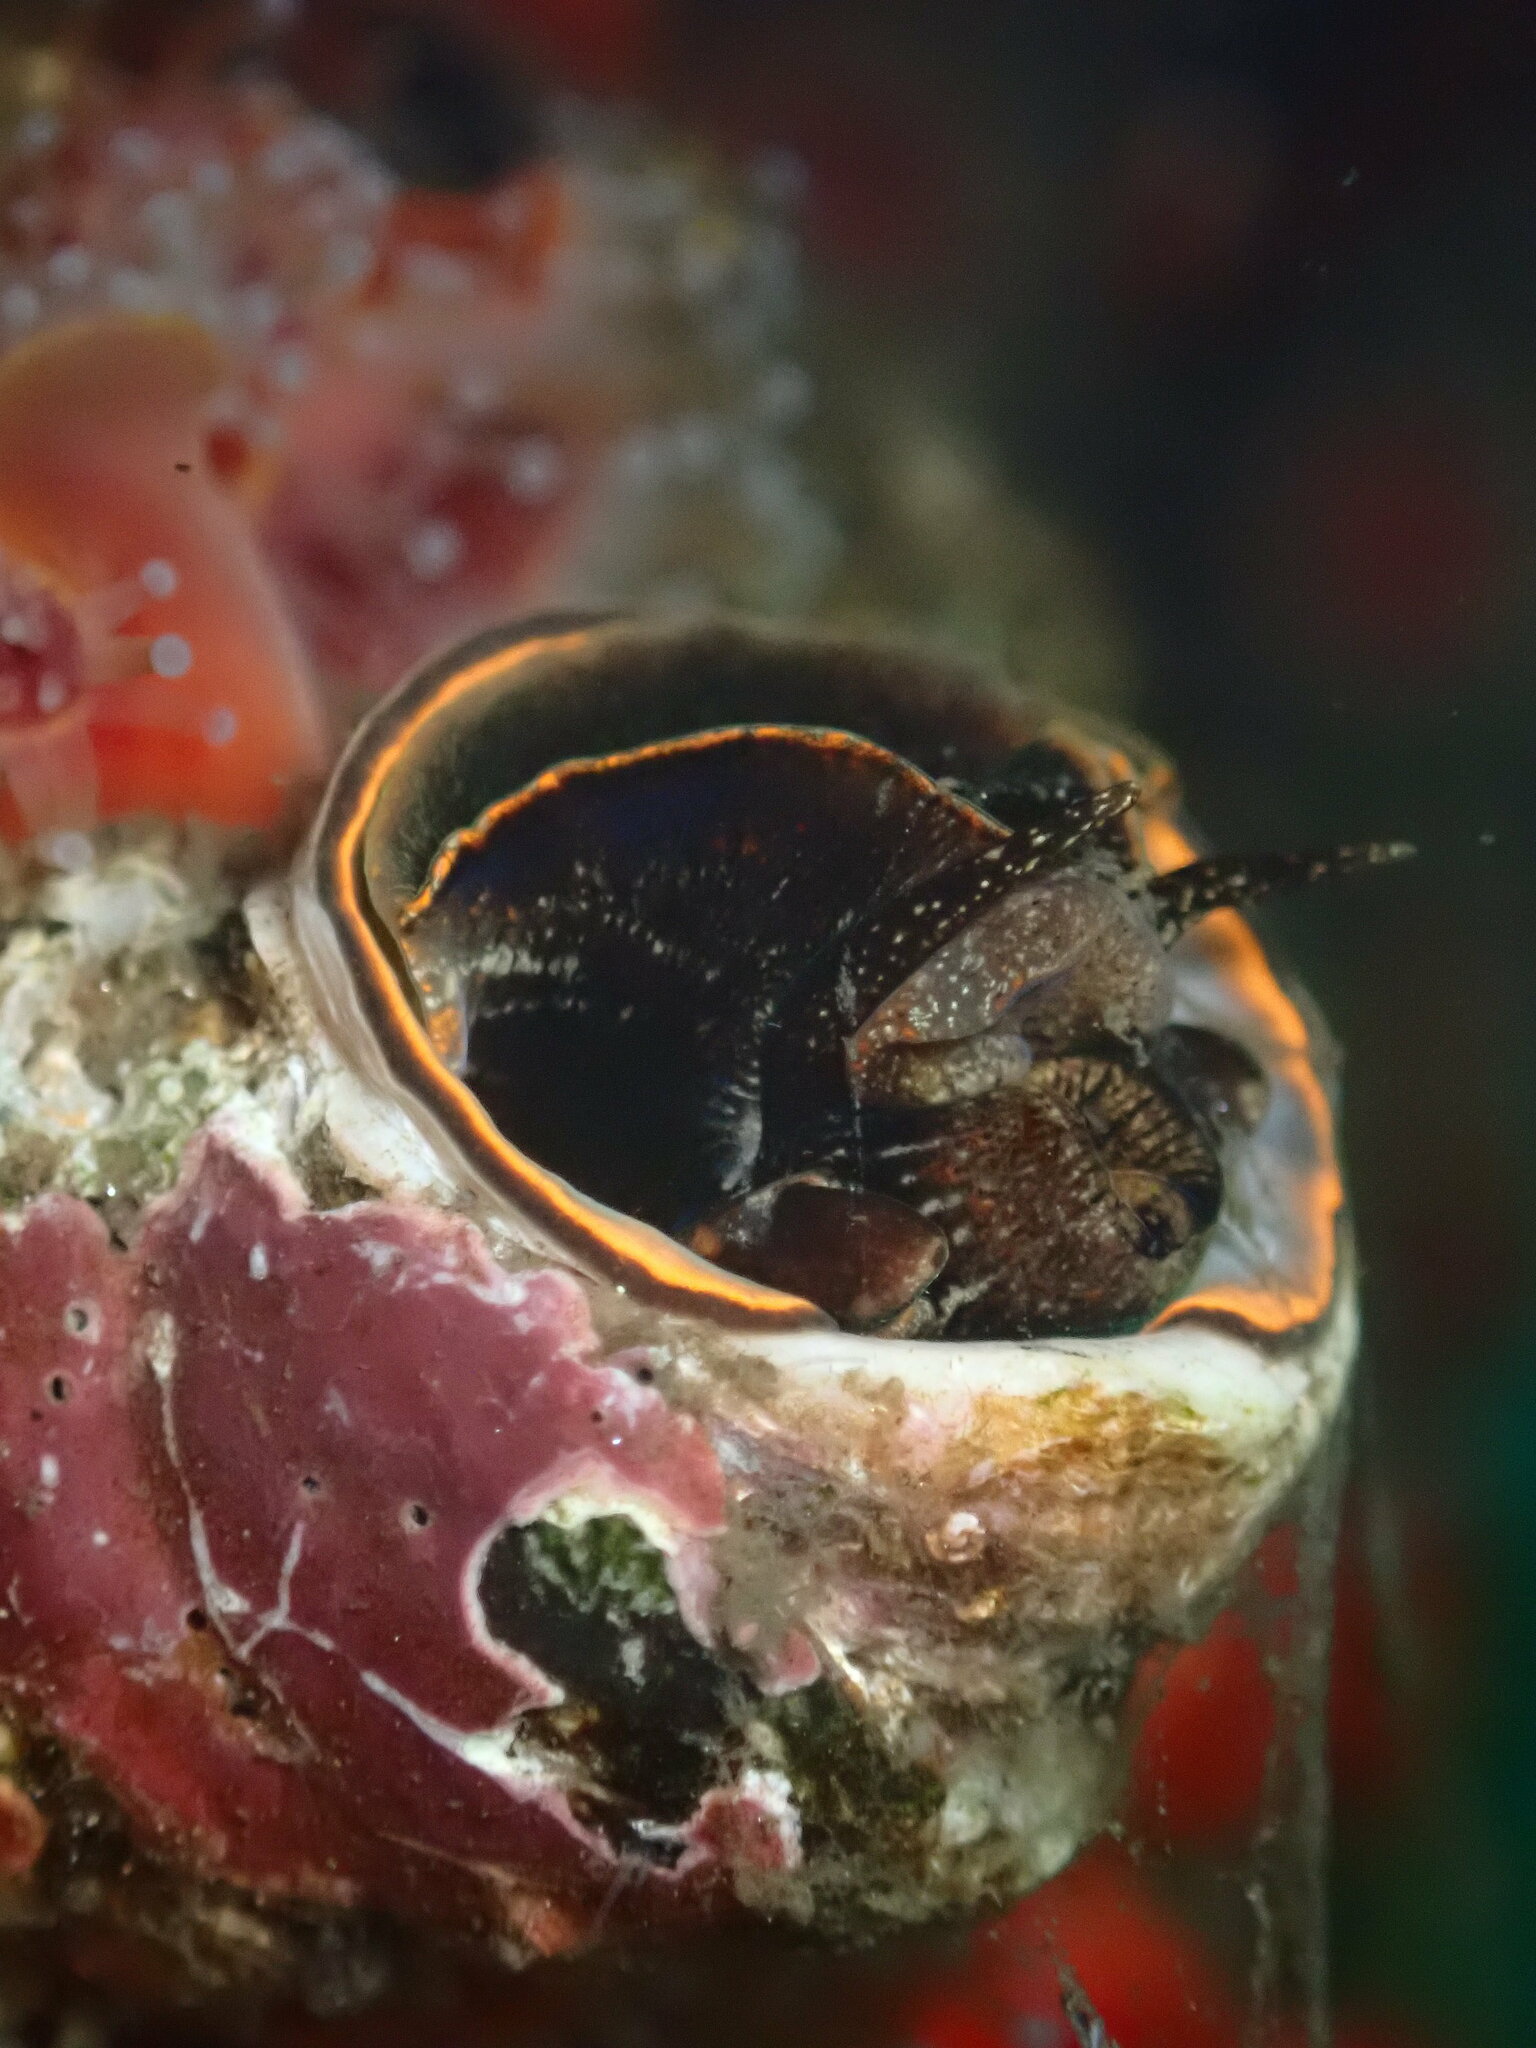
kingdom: Animalia
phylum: Mollusca
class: Gastropoda
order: Littorinimorpha
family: Vermetidae
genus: Thylacodes
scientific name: Thylacodes squamigerus
